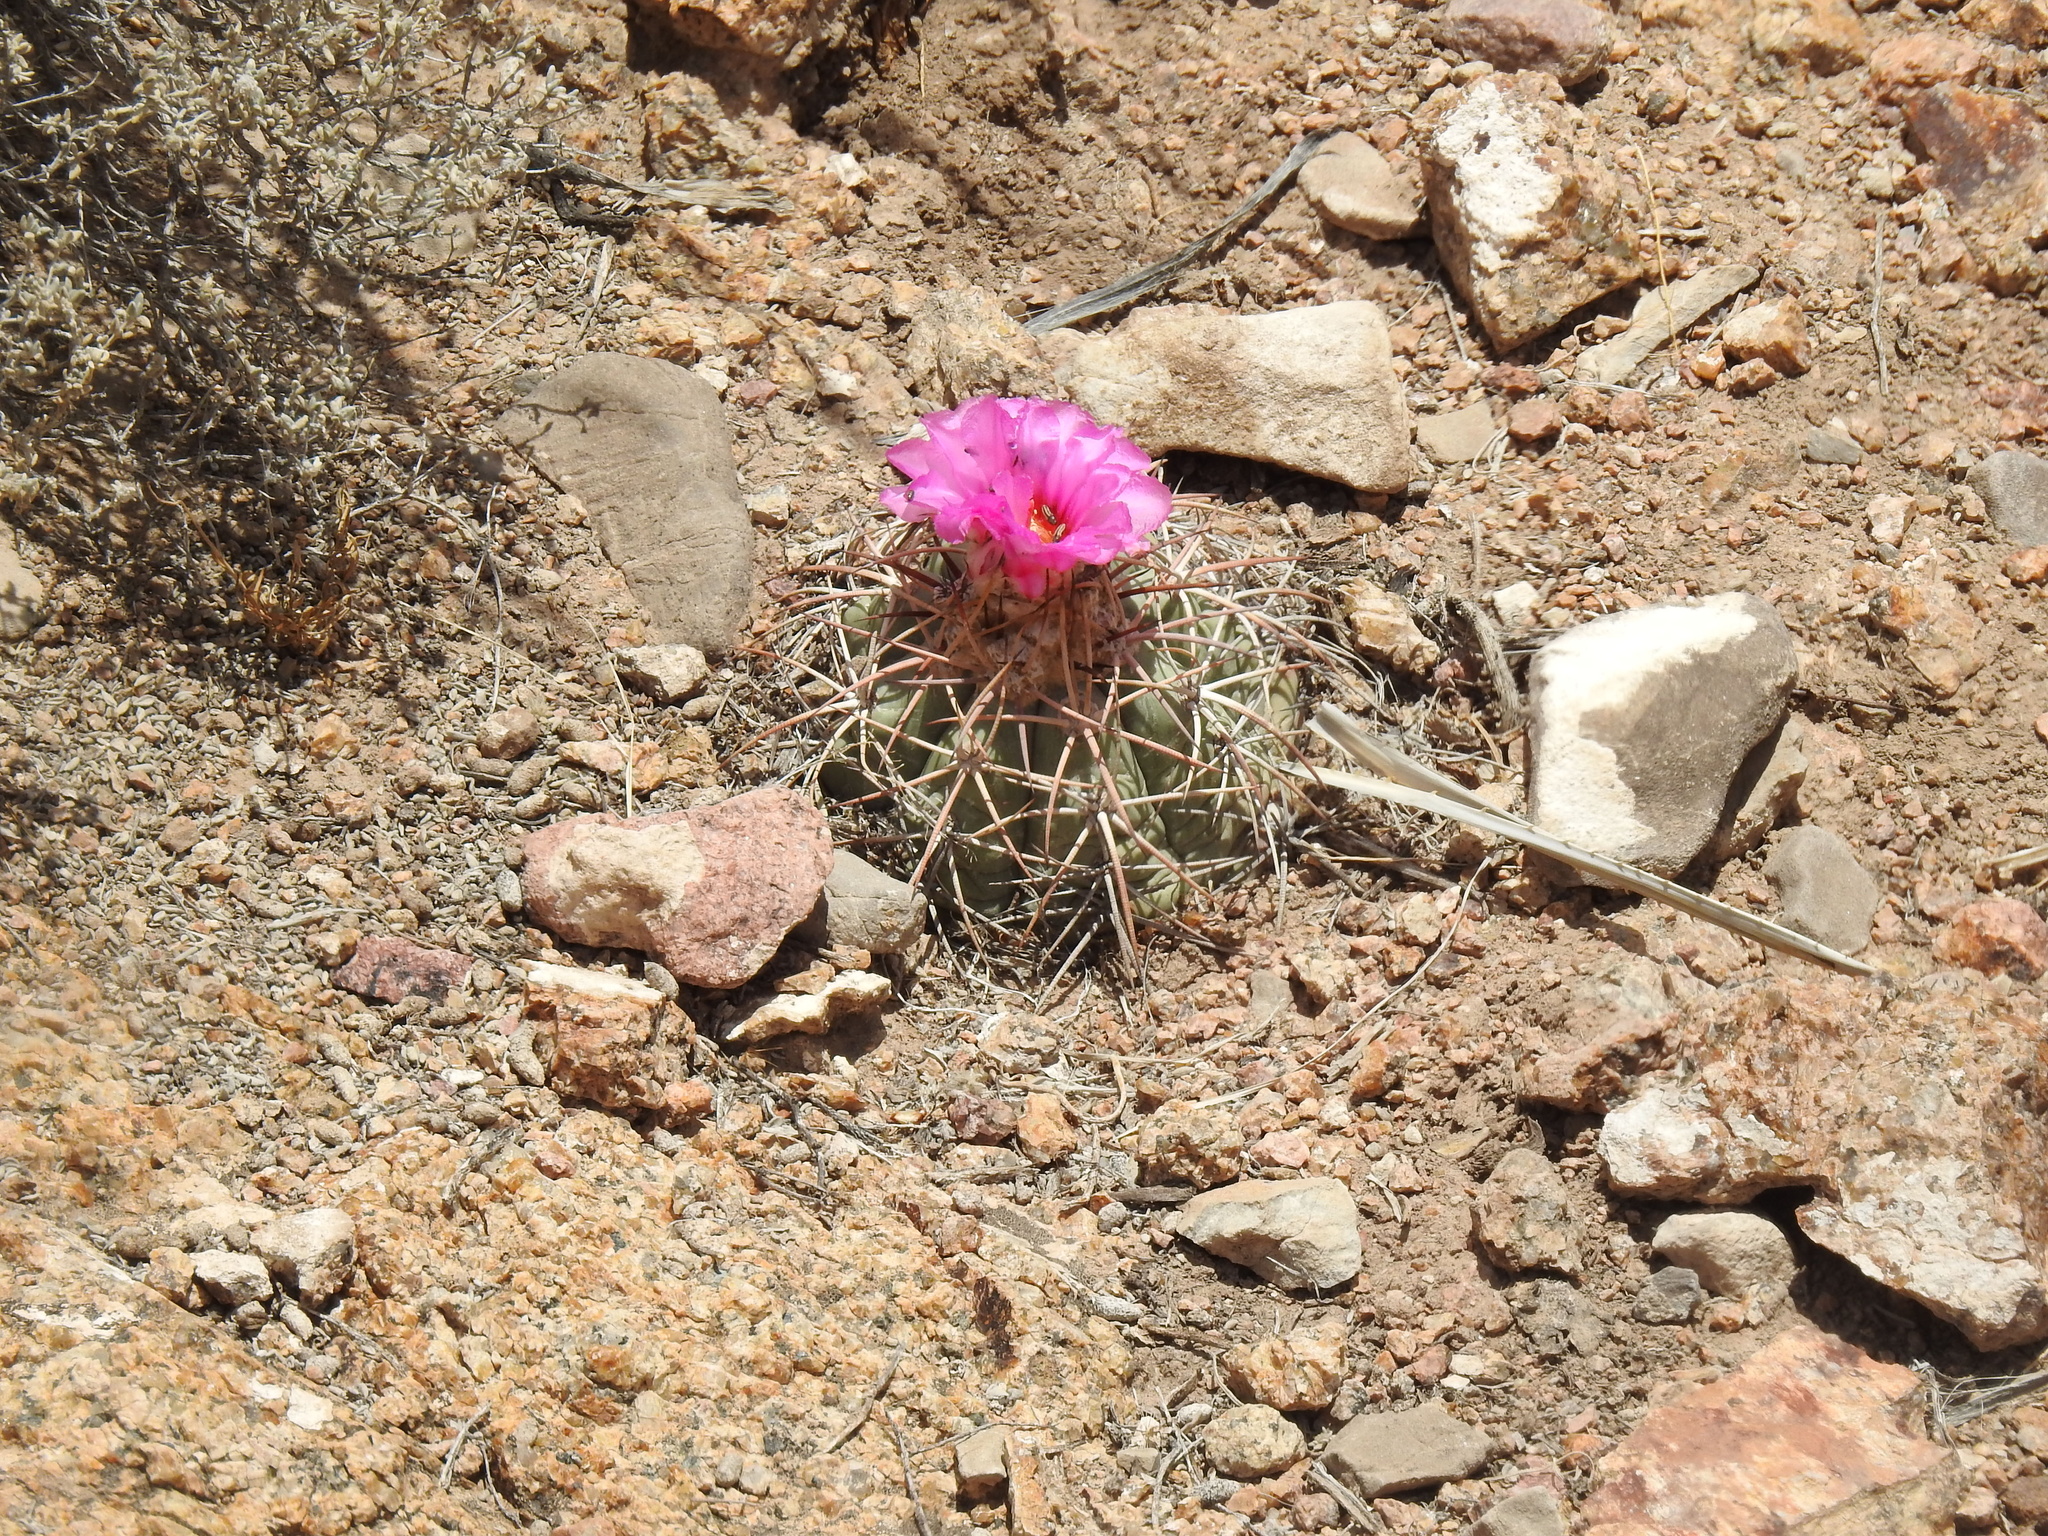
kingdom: Plantae
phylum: Tracheophyta
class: Magnoliopsida
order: Caryophyllales
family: Cactaceae
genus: Echinocactus
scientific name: Echinocactus horizonthalonius
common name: Devilshead
